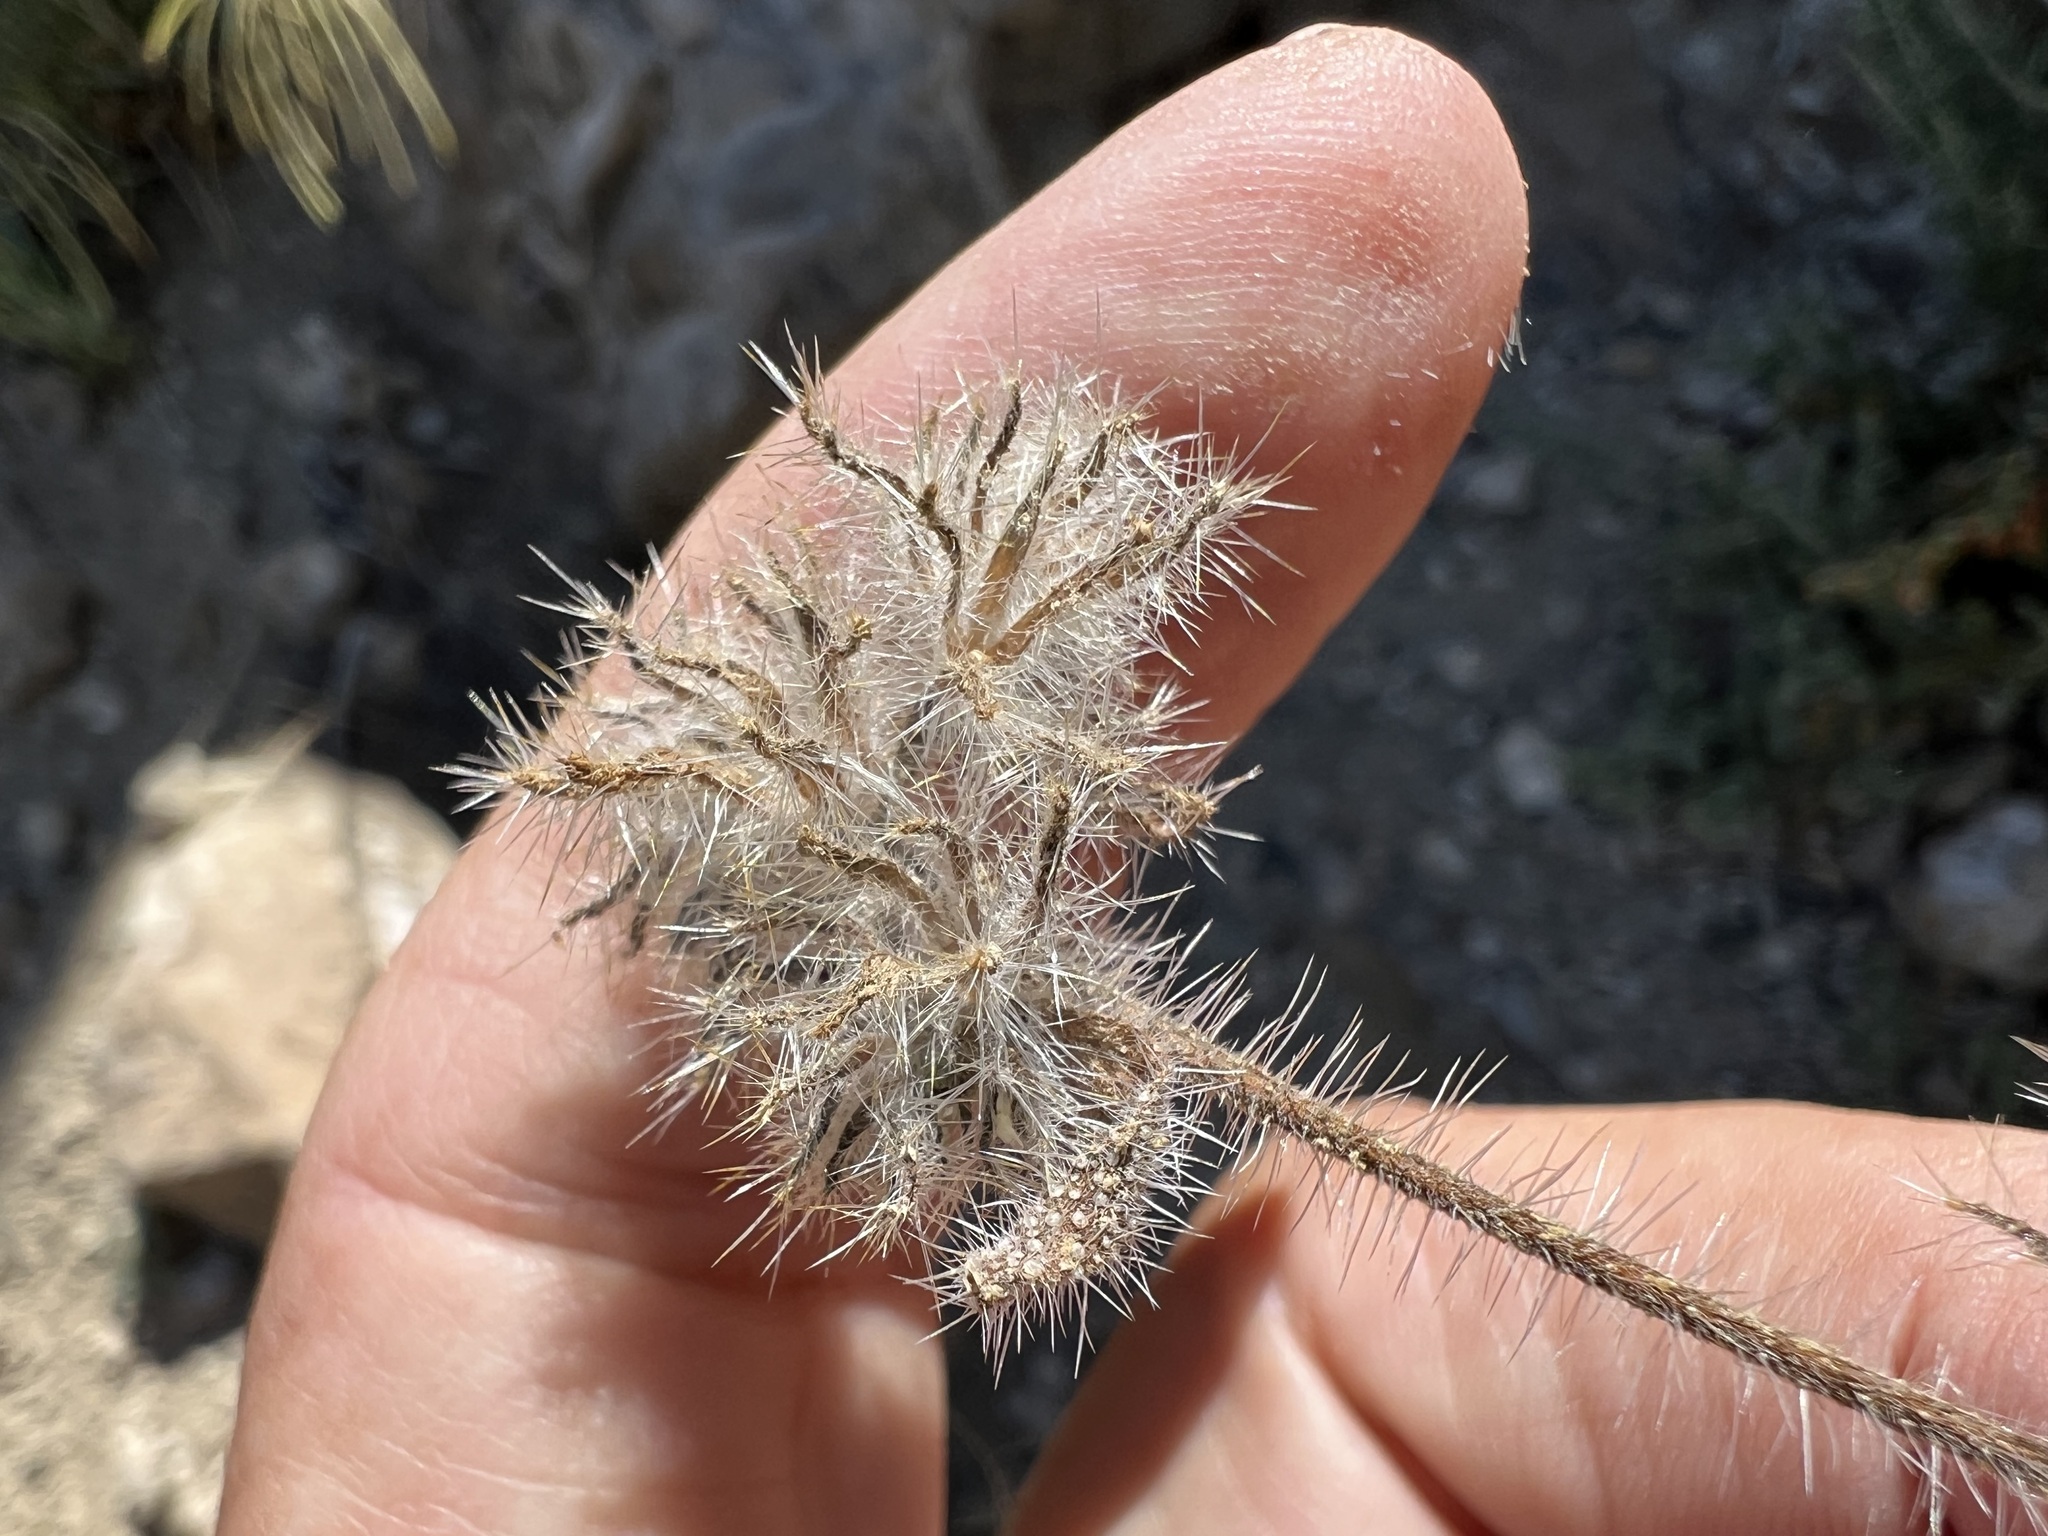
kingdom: Plantae
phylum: Tracheophyta
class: Magnoliopsida
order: Boraginales
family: Boraginaceae
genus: Amsinckia
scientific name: Amsinckia tessellata
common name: Tessellate fiddleneck
